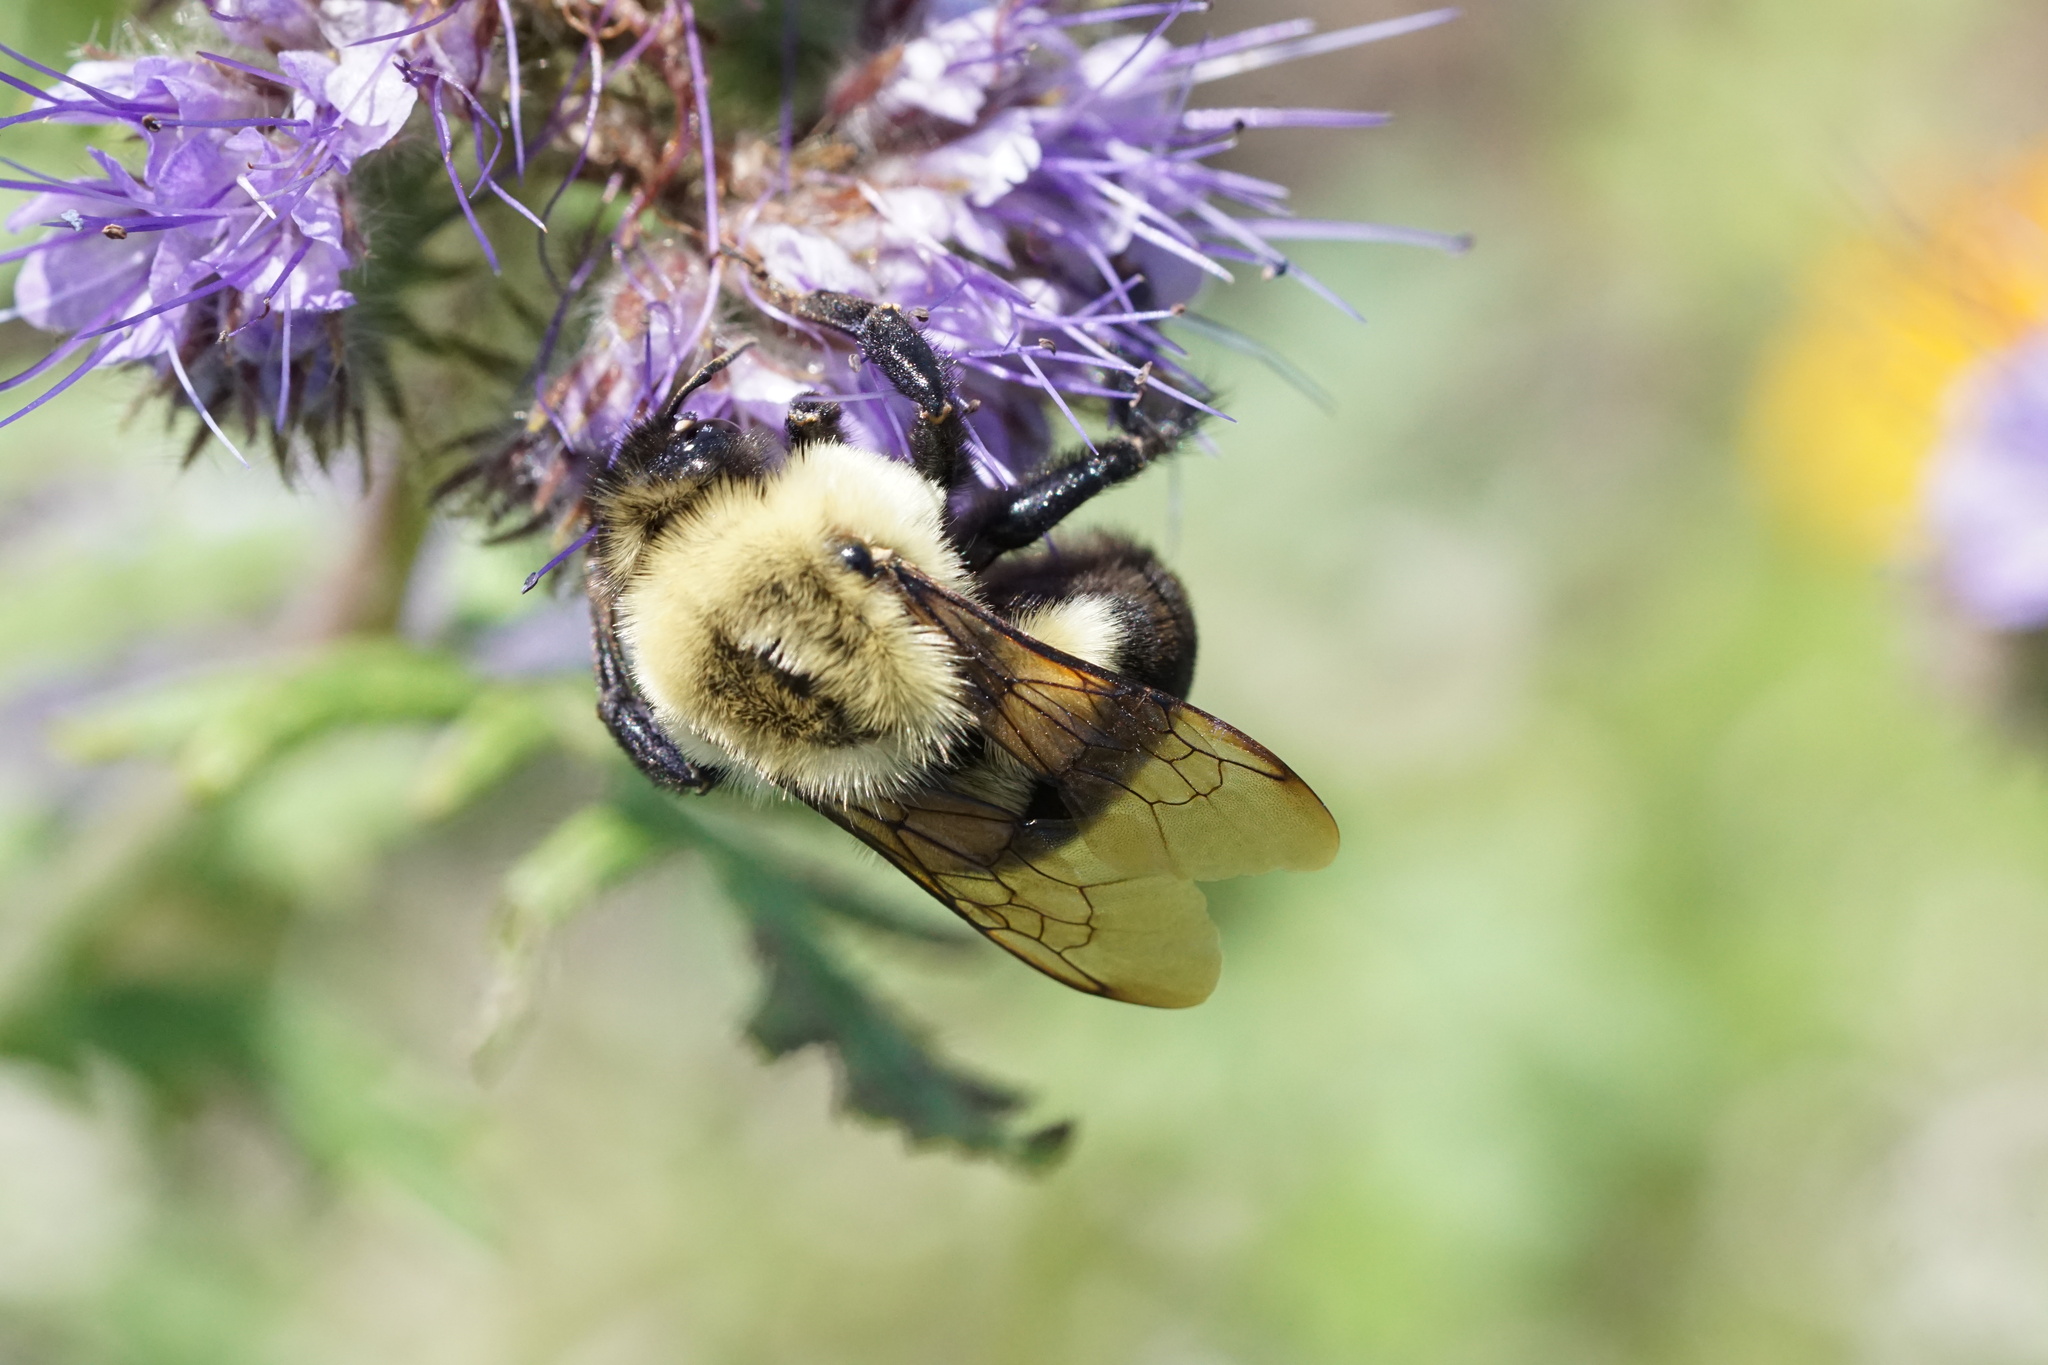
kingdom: Animalia
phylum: Arthropoda
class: Insecta
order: Hymenoptera
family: Apidae
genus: Bombus
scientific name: Bombus impatiens
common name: Common eastern bumble bee
